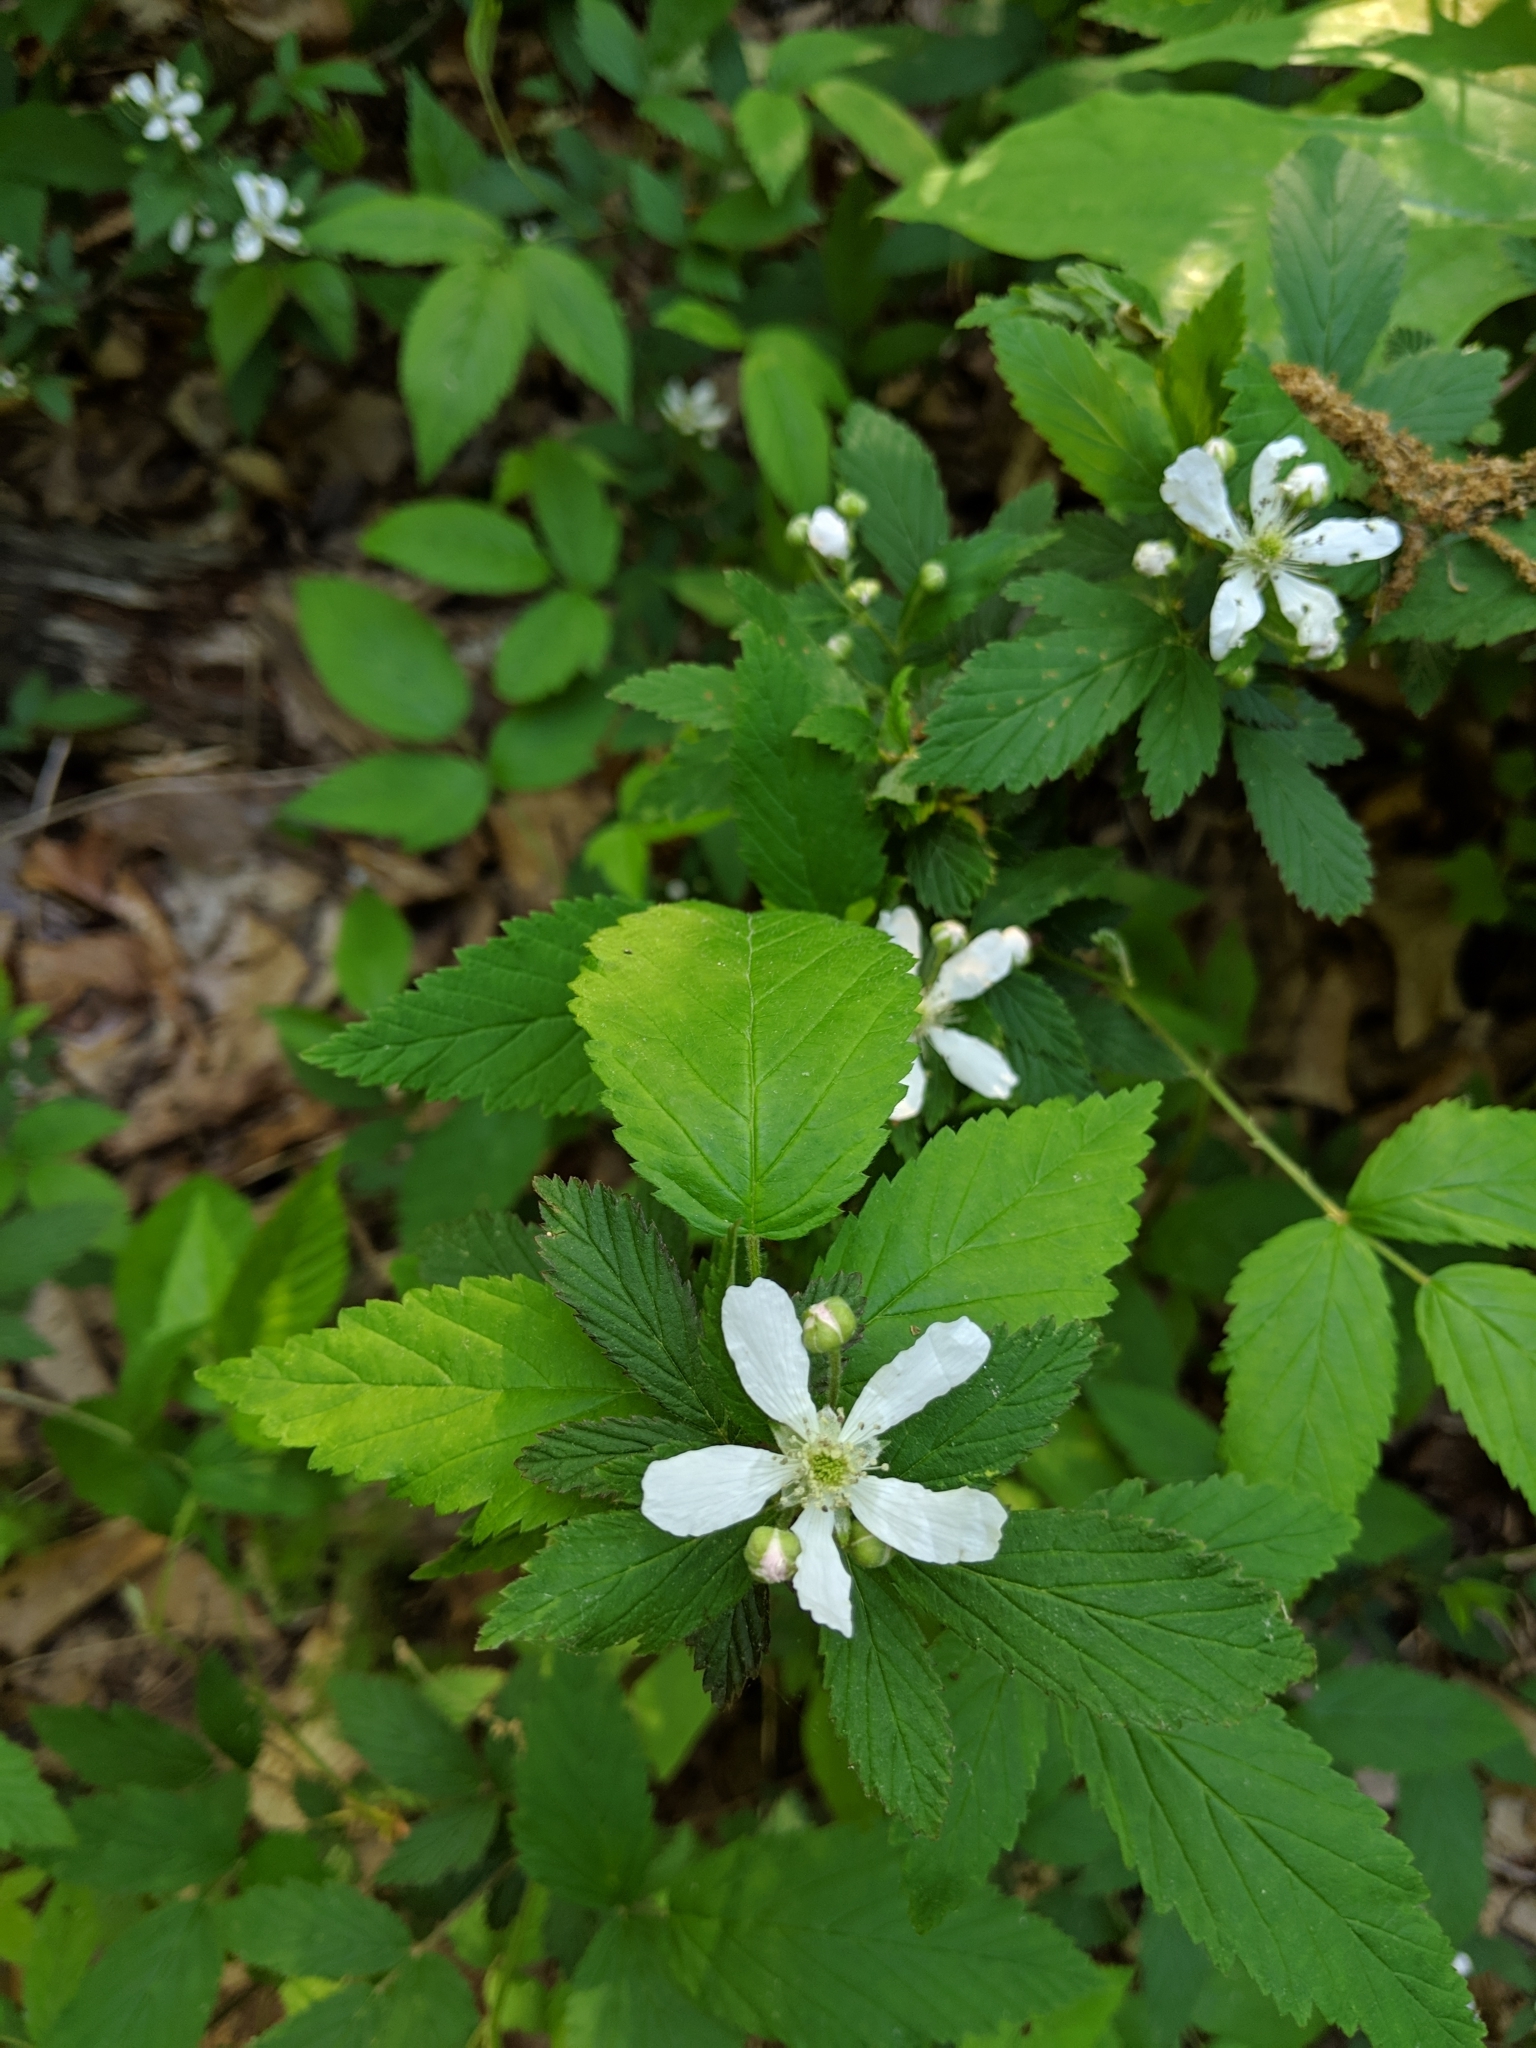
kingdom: Plantae
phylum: Tracheophyta
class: Magnoliopsida
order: Rosales
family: Rosaceae
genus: Rubus
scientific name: Rubus flagellaris
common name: American dewberry
